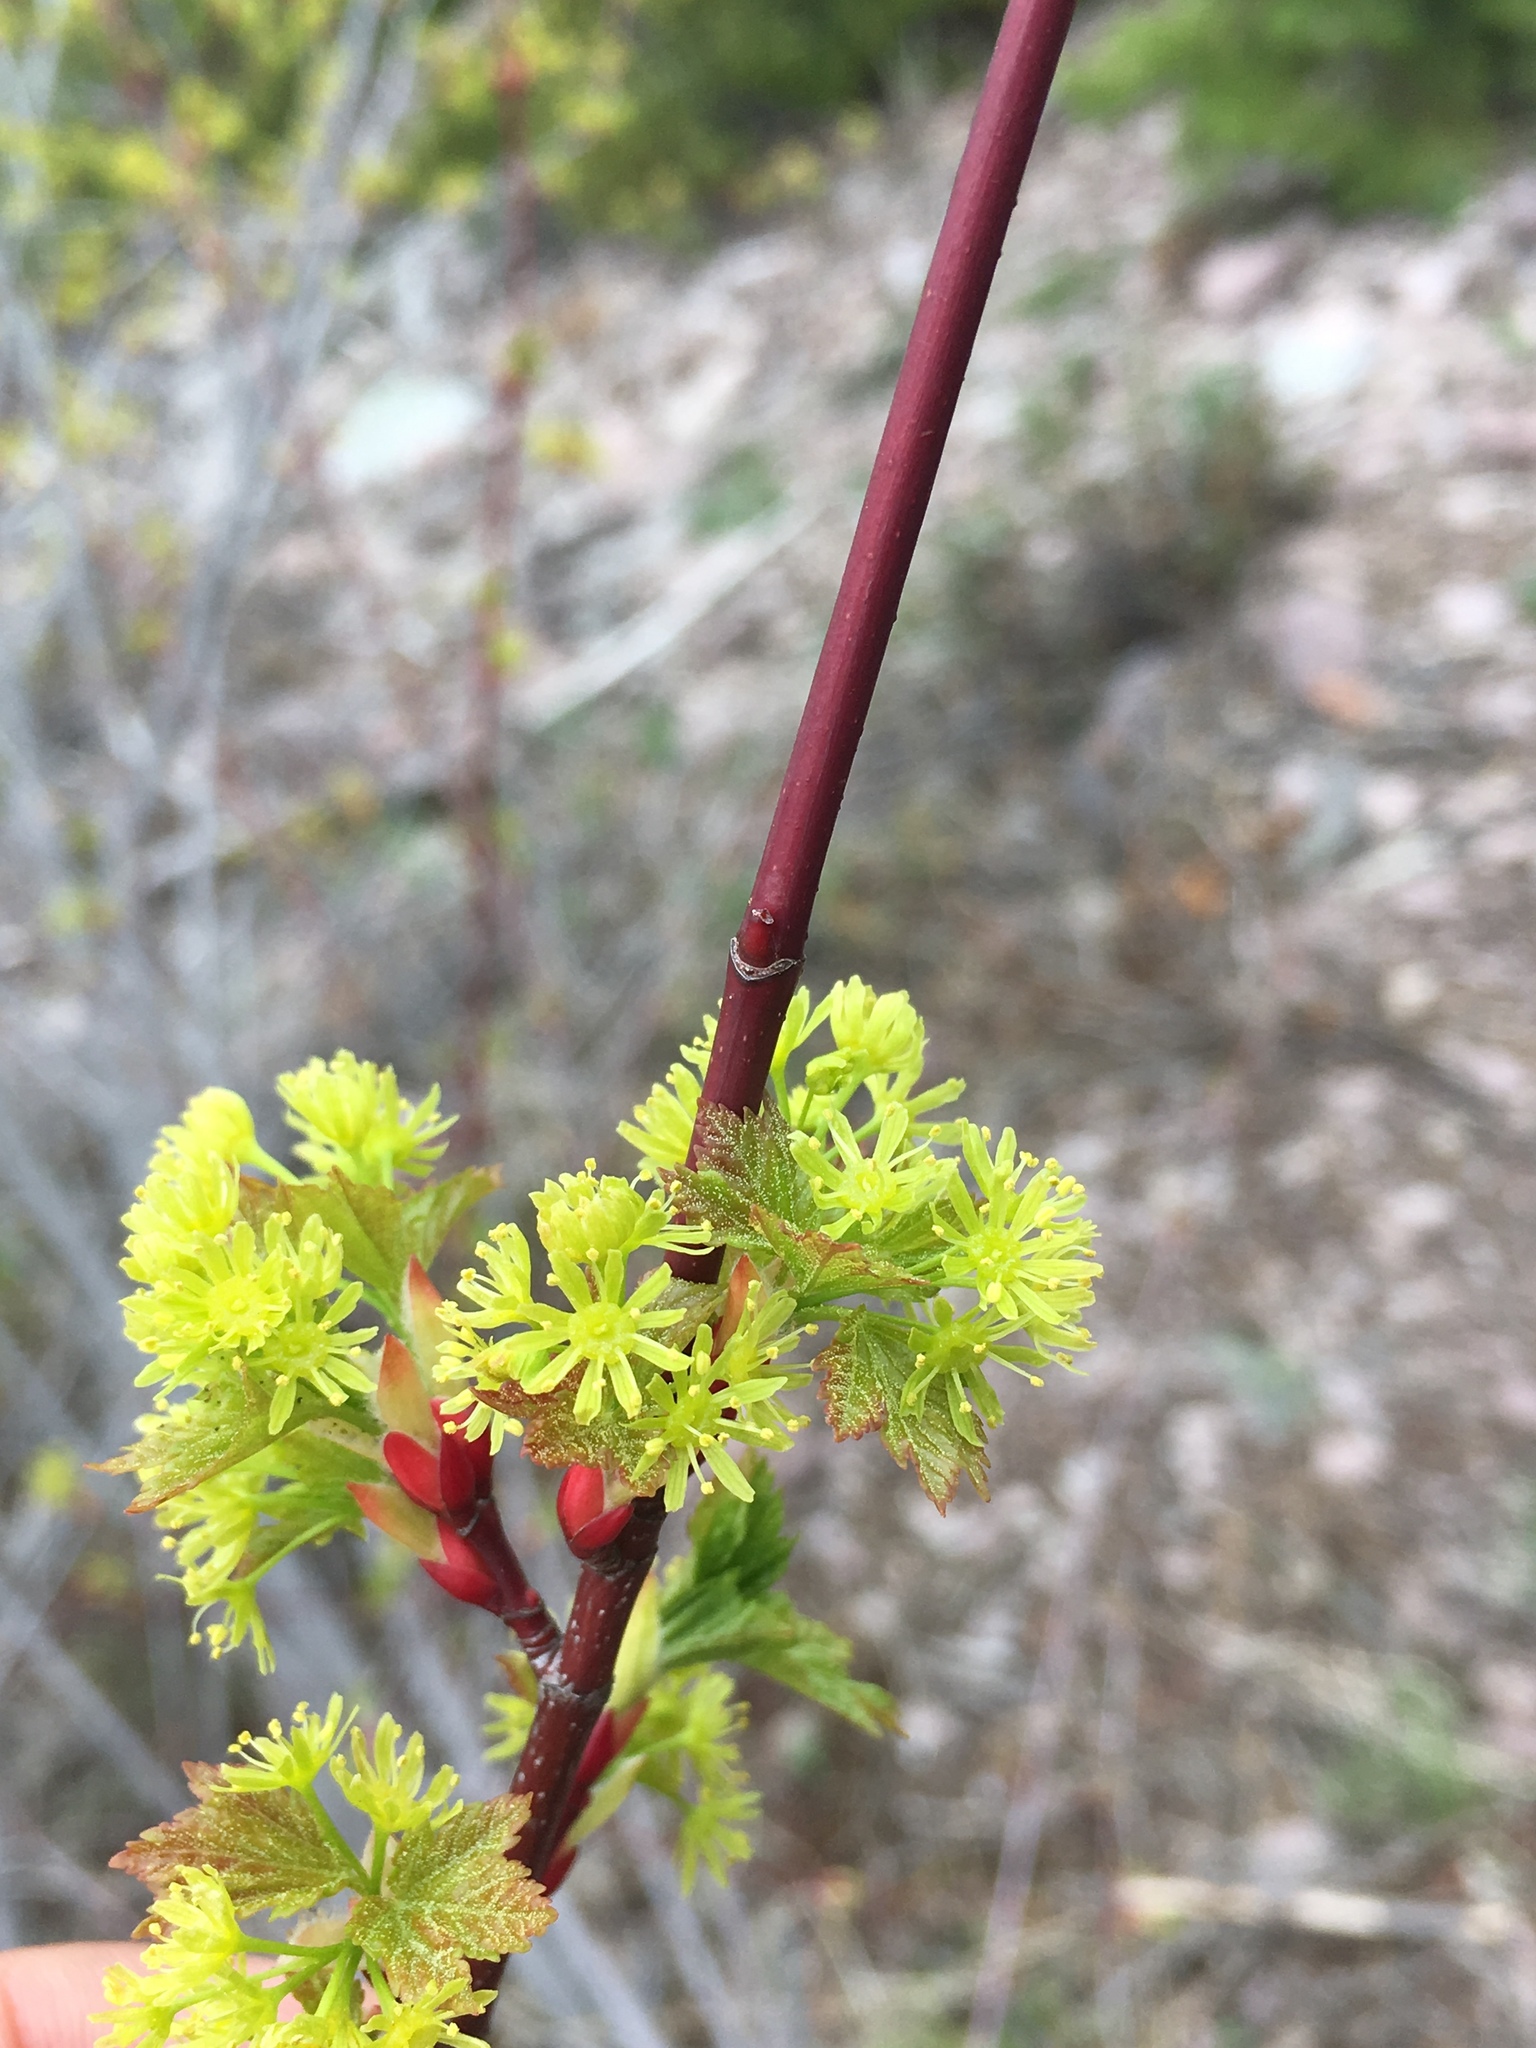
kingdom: Plantae
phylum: Tracheophyta
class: Magnoliopsida
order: Sapindales
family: Sapindaceae
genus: Acer
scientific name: Acer glabrum
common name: Rocky mountain maple
